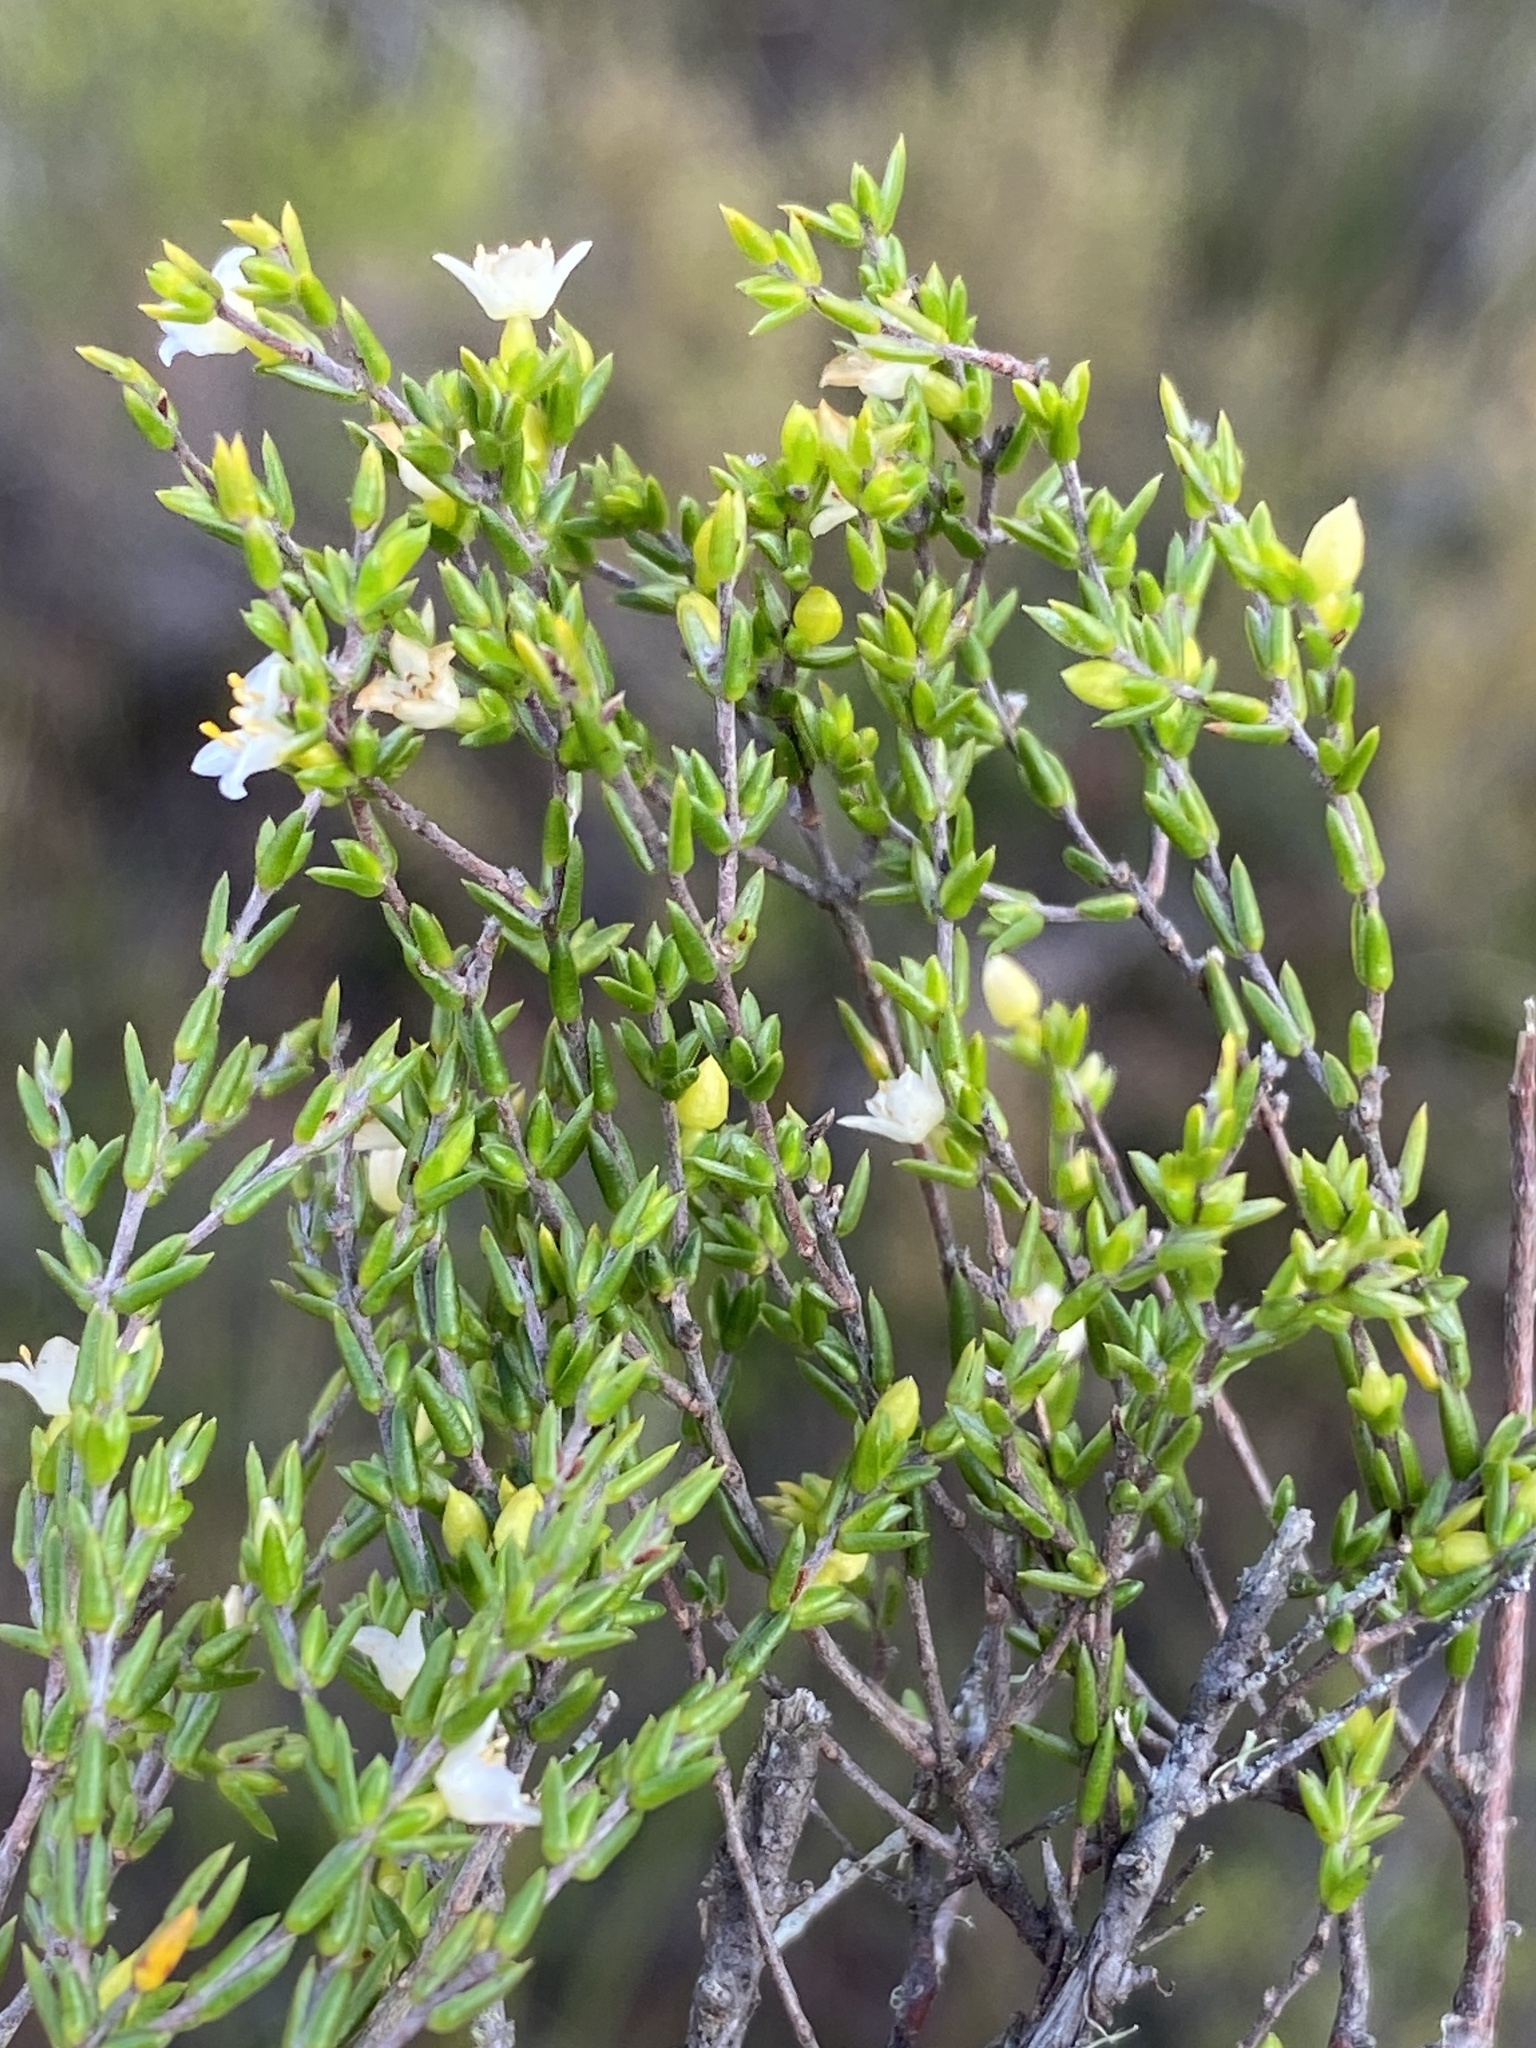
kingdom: Plantae
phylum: Tracheophyta
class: Magnoliopsida
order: Malvales
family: Thymelaeaceae
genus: Lachnaea
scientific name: Lachnaea axillaris
